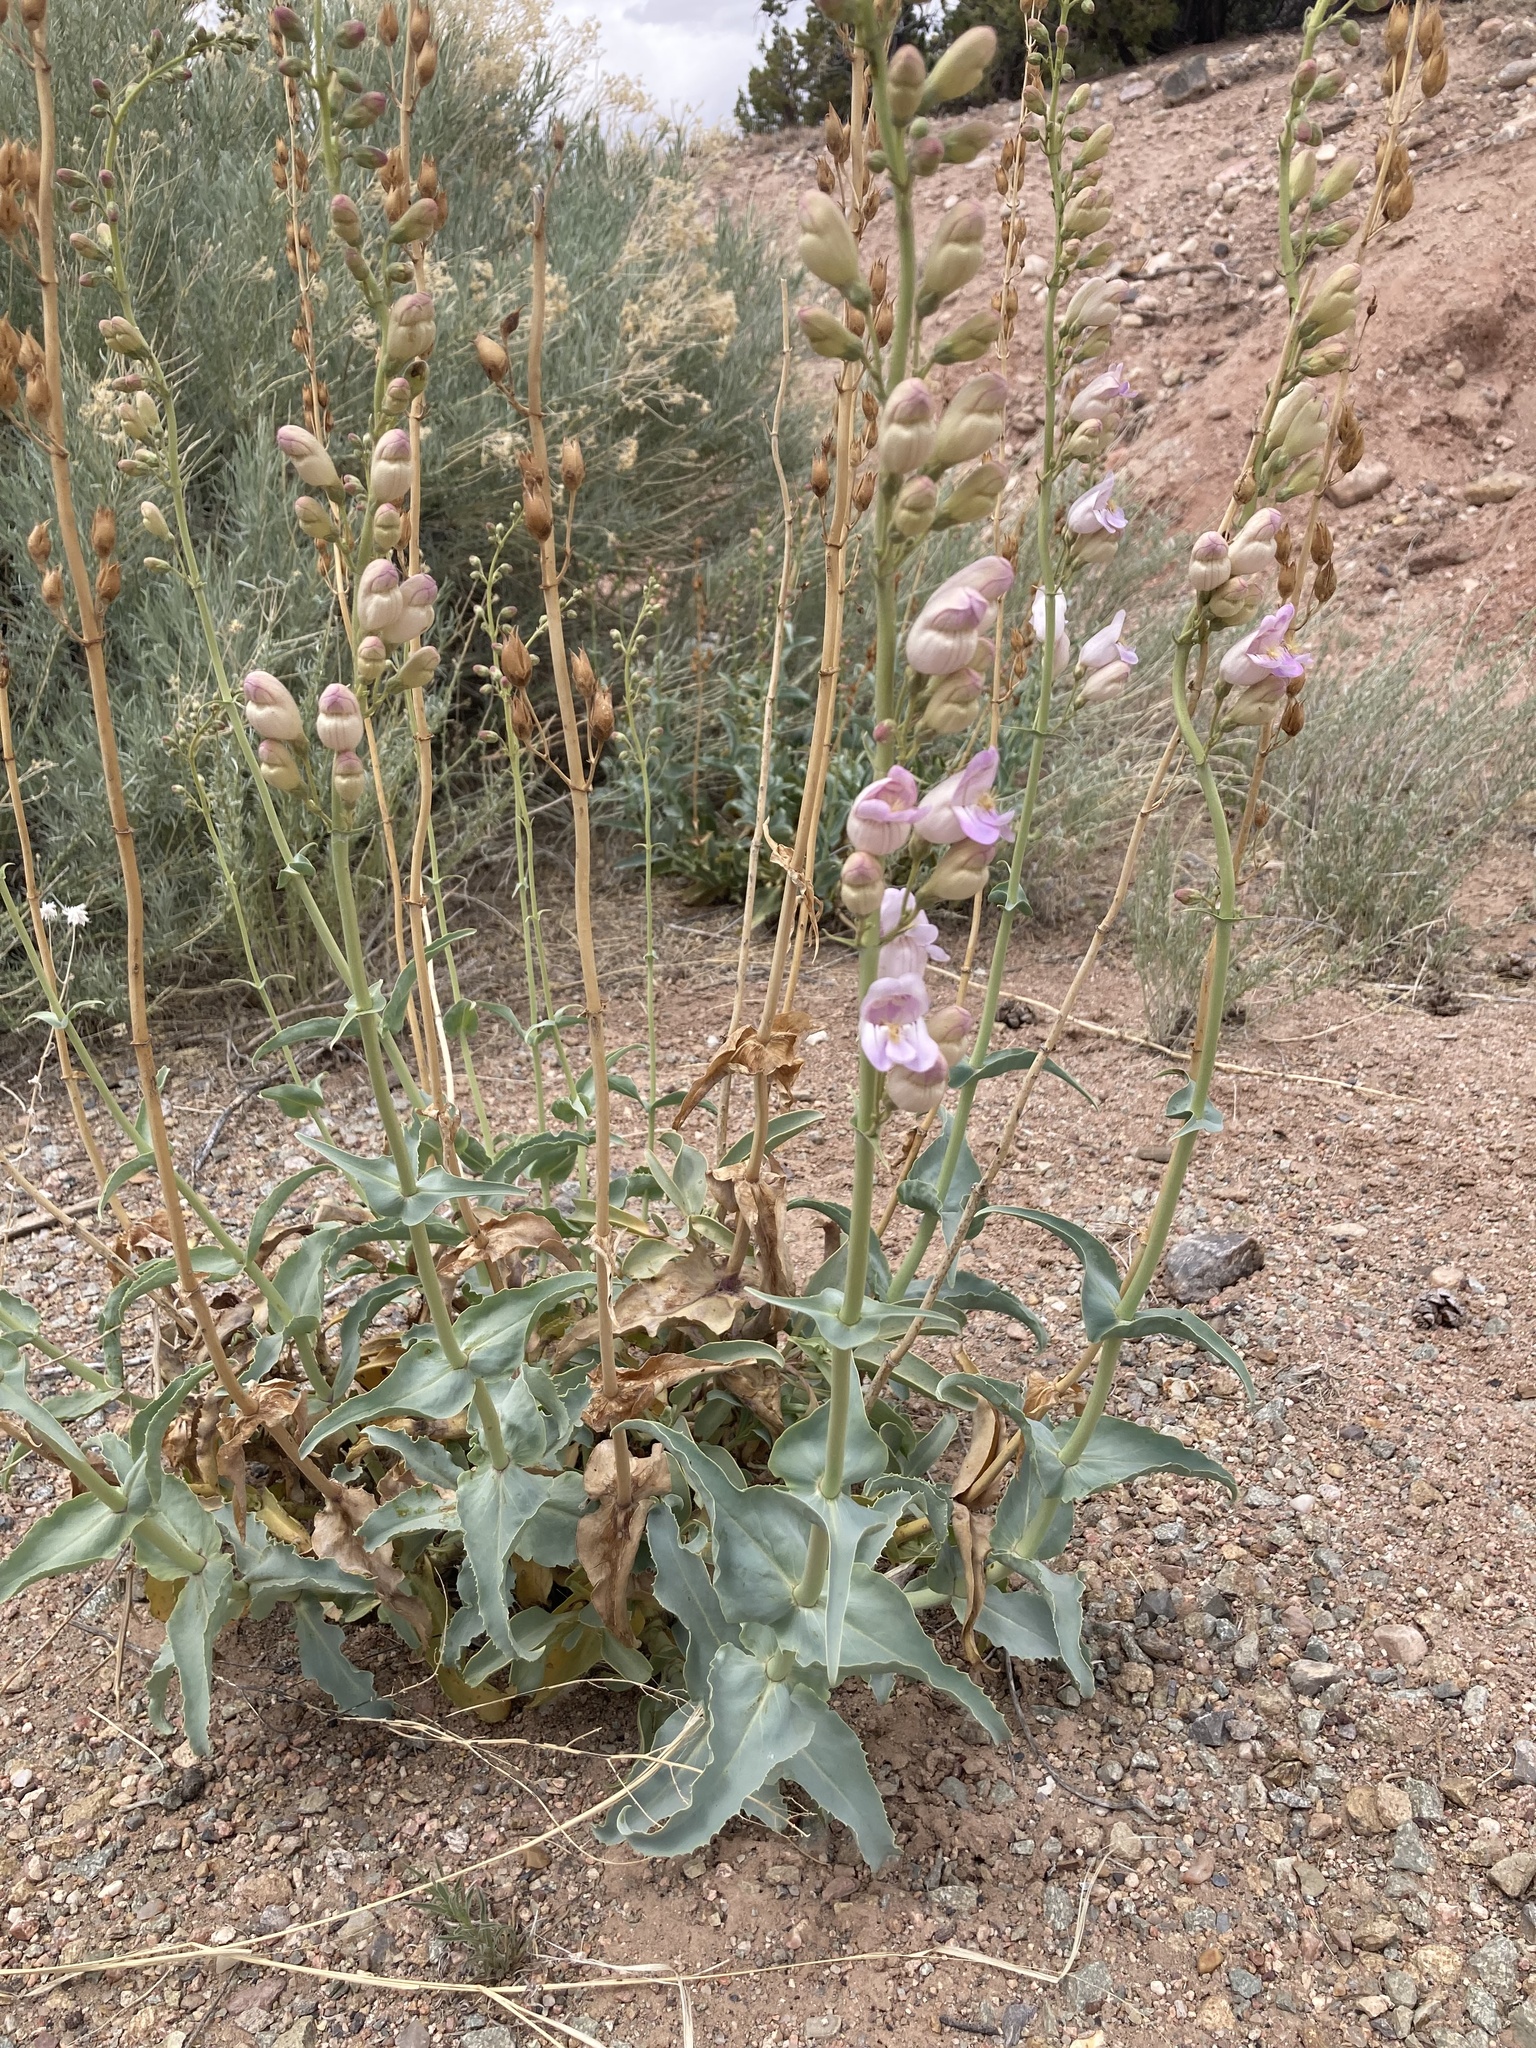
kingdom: Plantae
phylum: Tracheophyta
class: Magnoliopsida
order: Lamiales
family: Plantaginaceae
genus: Penstemon
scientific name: Penstemon palmeri
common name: Palmer penstemon
